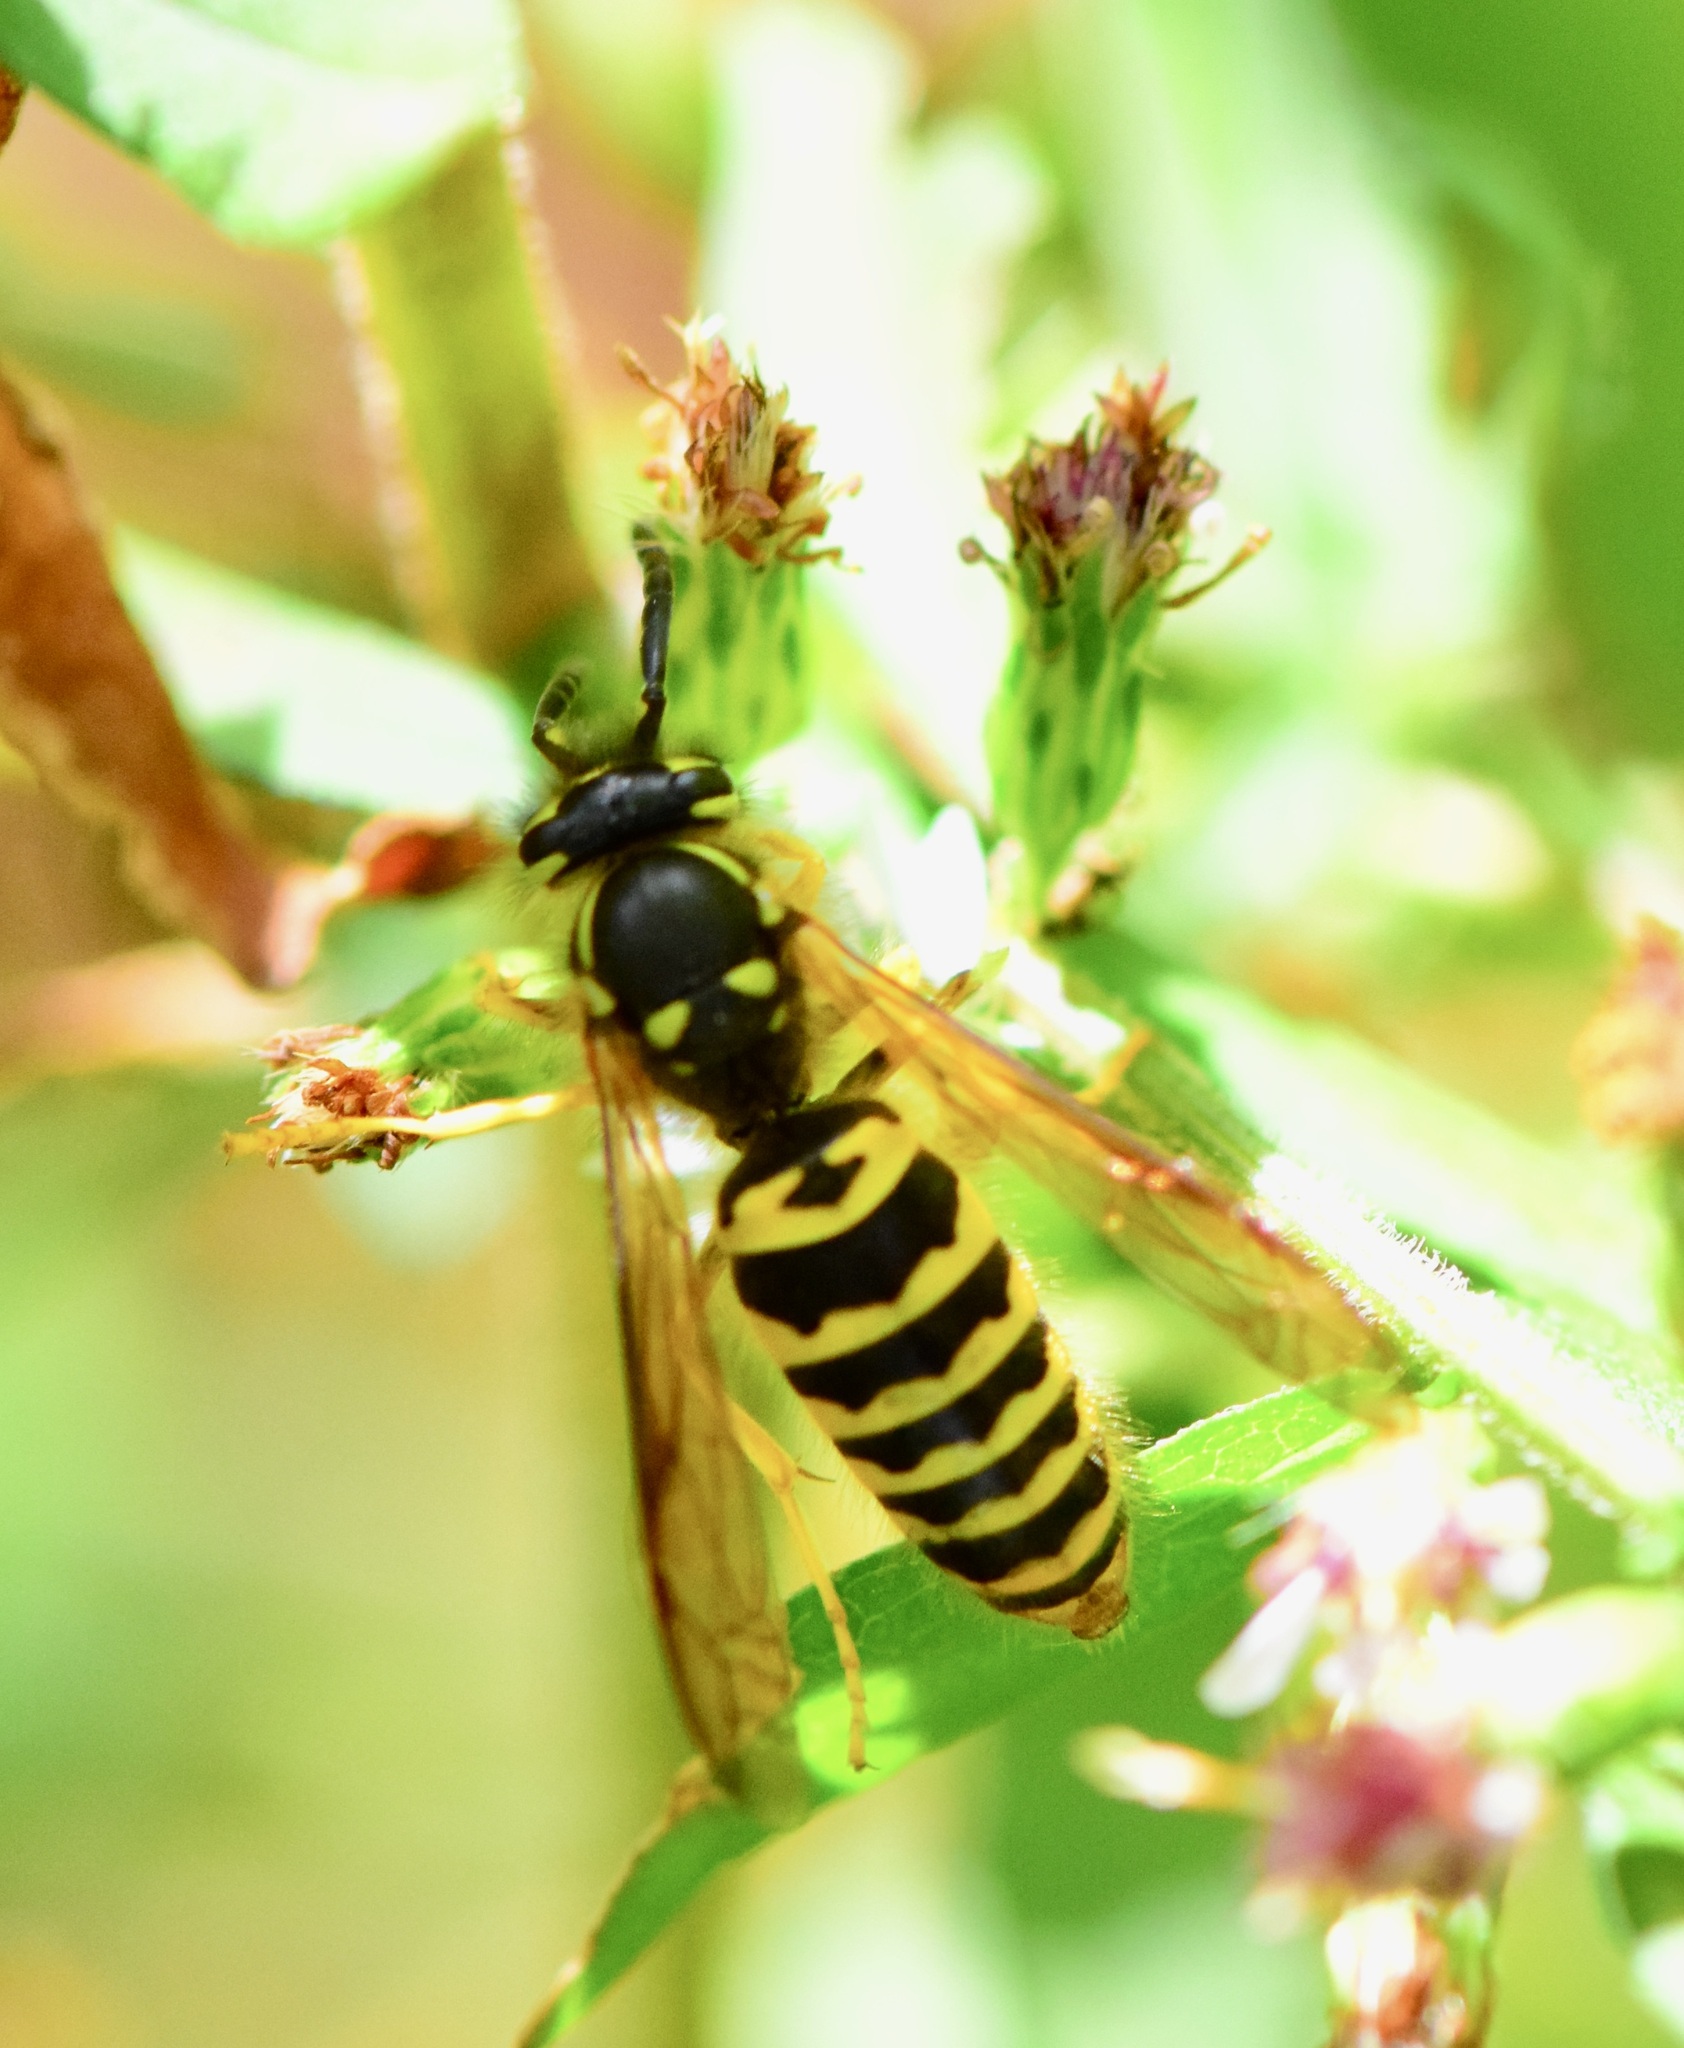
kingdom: Animalia
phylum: Arthropoda
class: Insecta
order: Hymenoptera
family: Vespidae
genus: Vespula
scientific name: Vespula maculifrons
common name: Eastern yellowjacket
